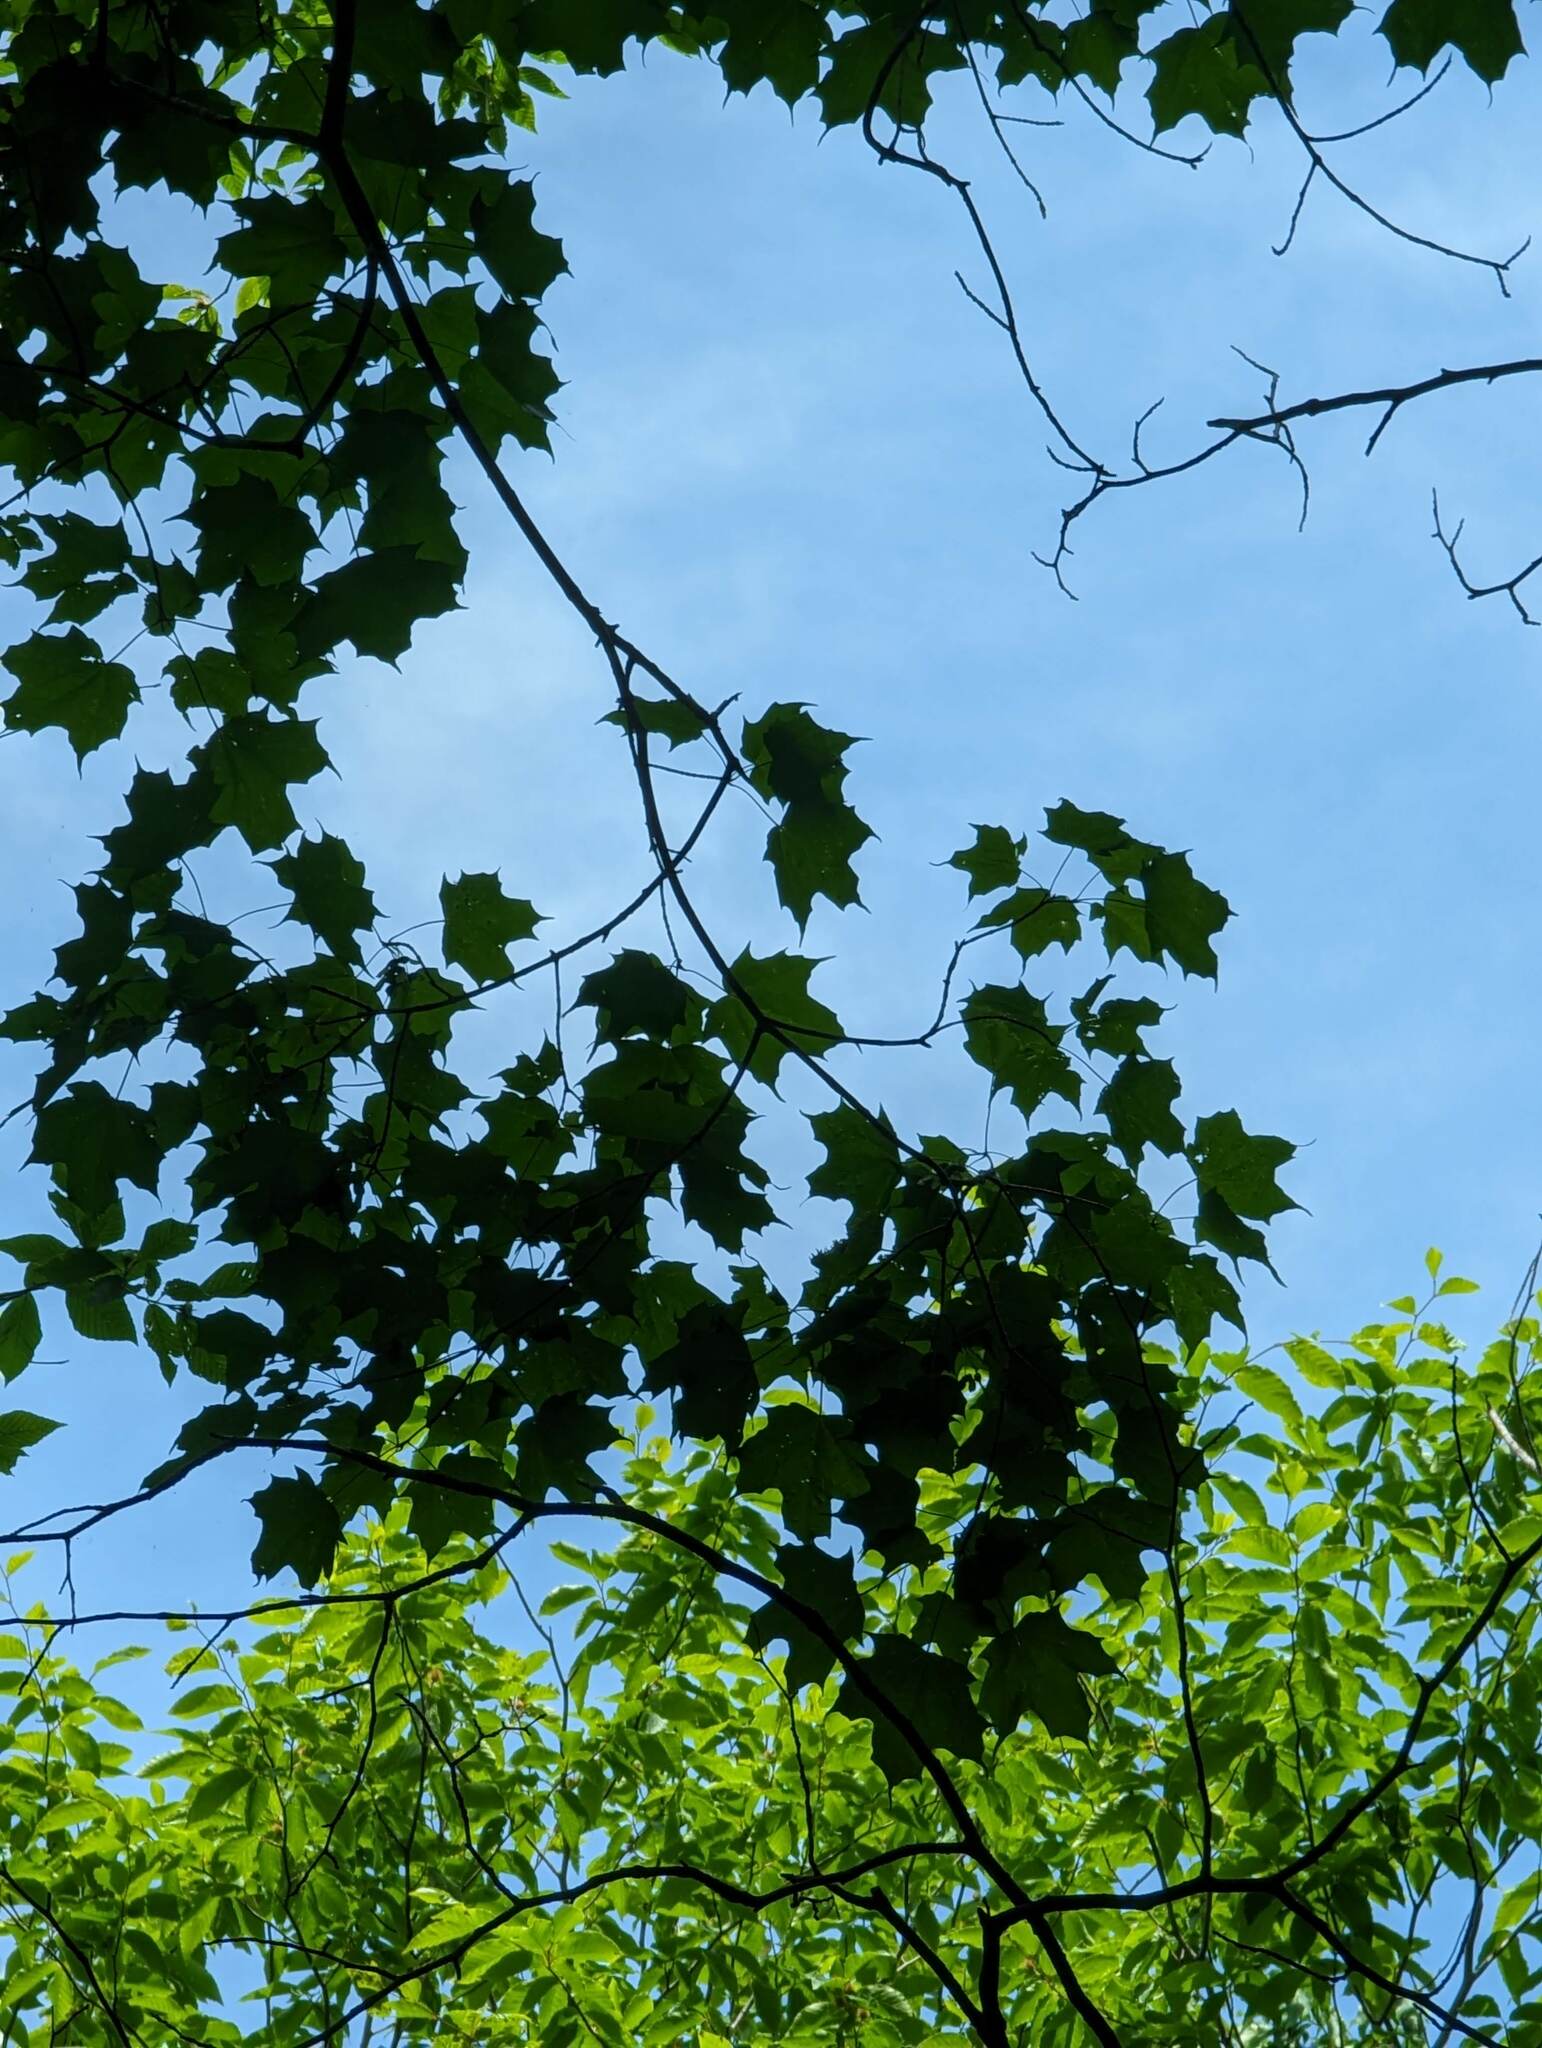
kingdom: Plantae
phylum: Tracheophyta
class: Magnoliopsida
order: Sapindales
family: Sapindaceae
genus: Acer
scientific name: Acer saccharum
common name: Sugar maple
